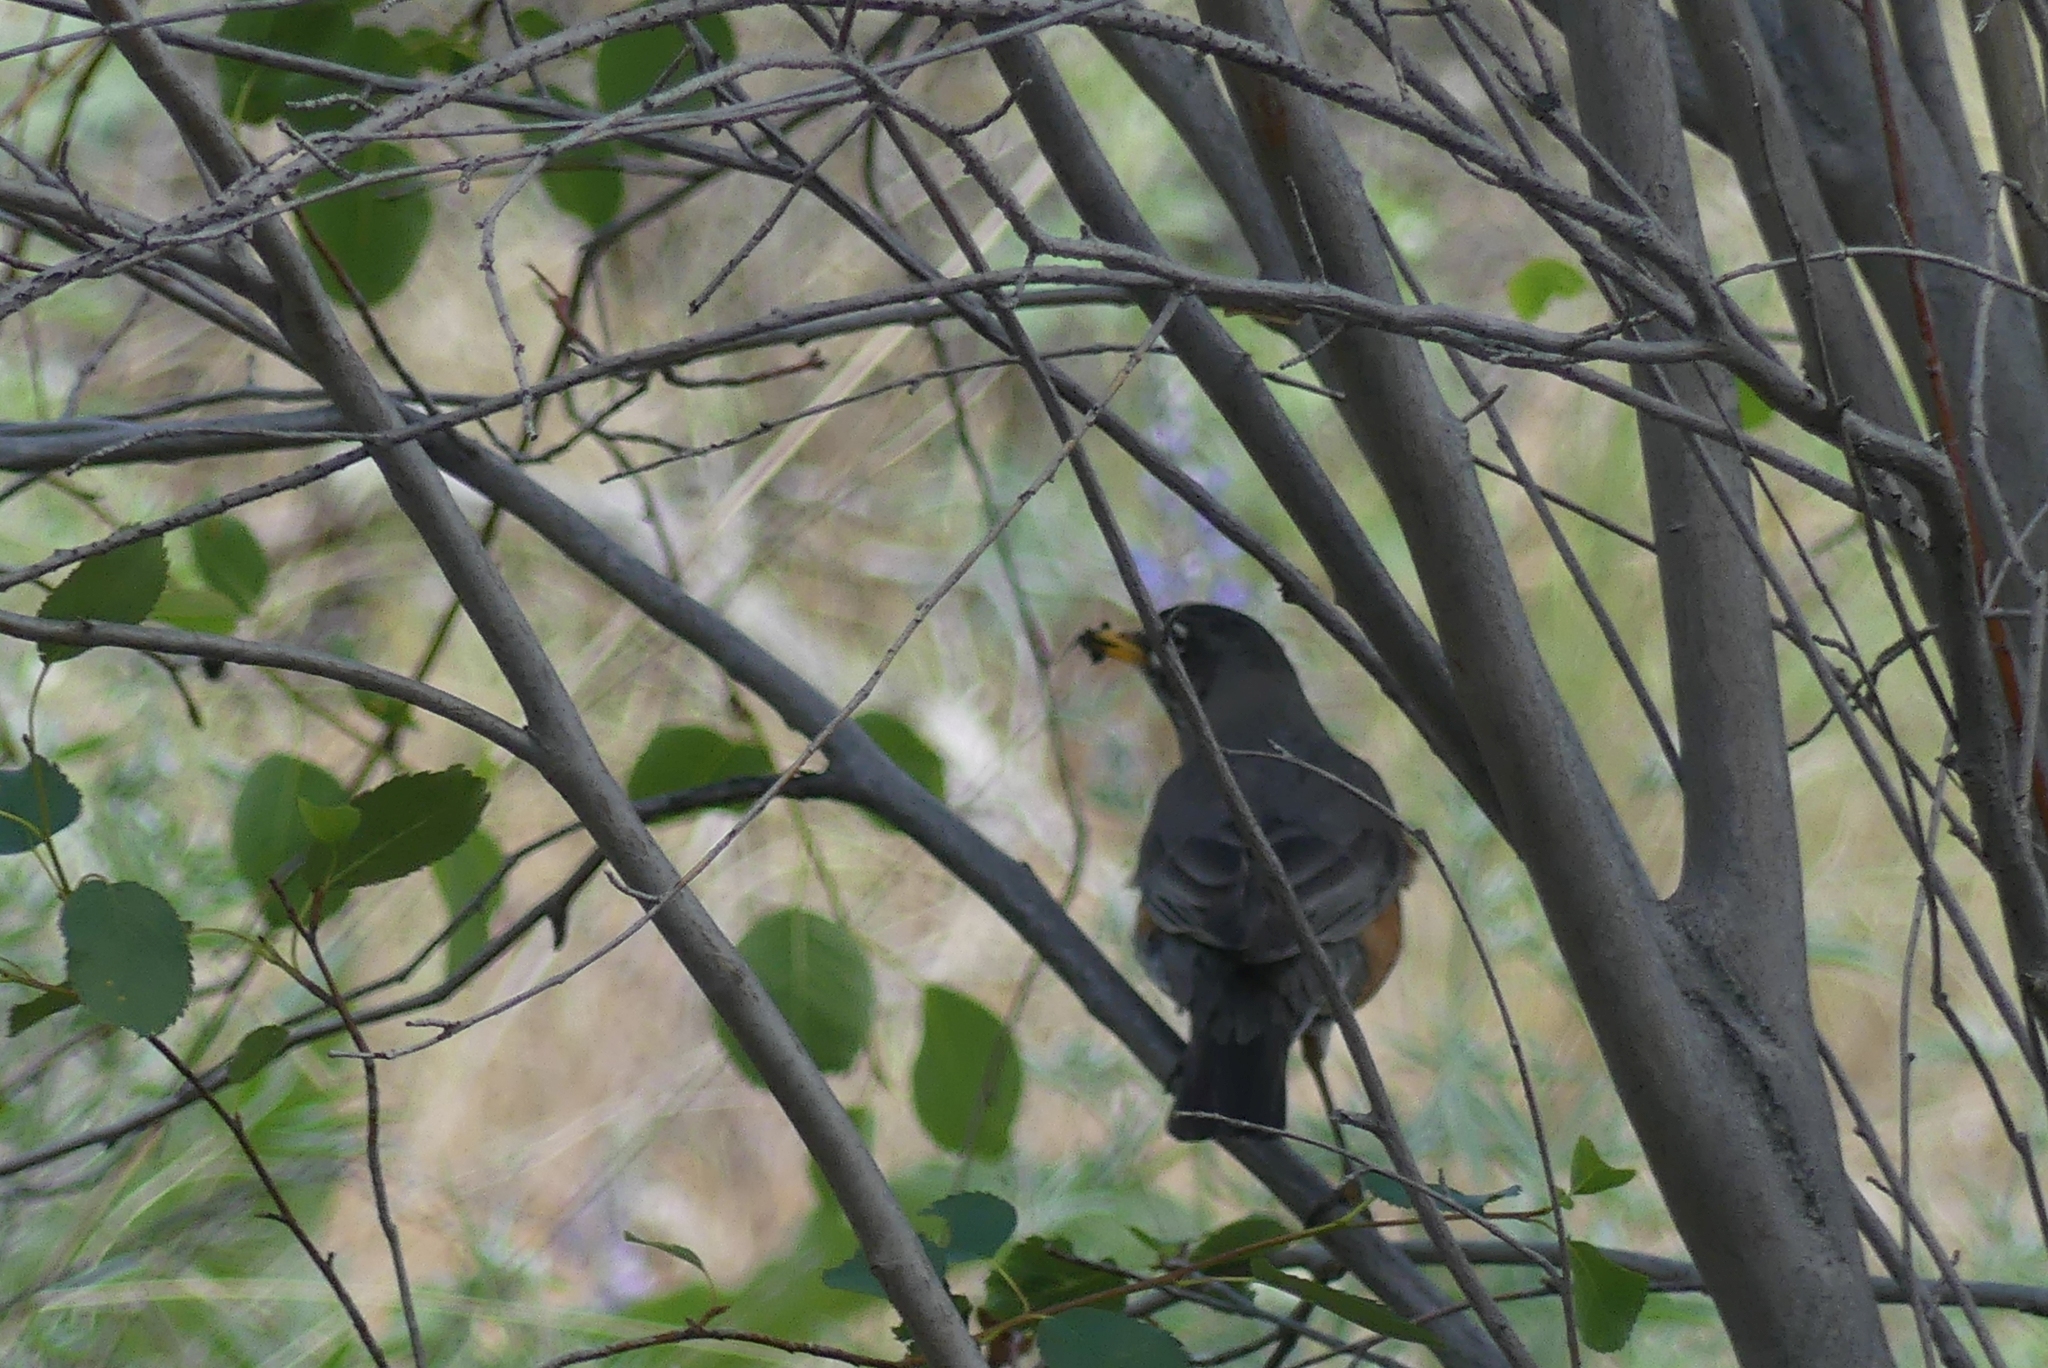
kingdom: Animalia
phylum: Chordata
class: Aves
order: Passeriformes
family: Turdidae
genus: Turdus
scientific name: Turdus migratorius
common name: American robin
